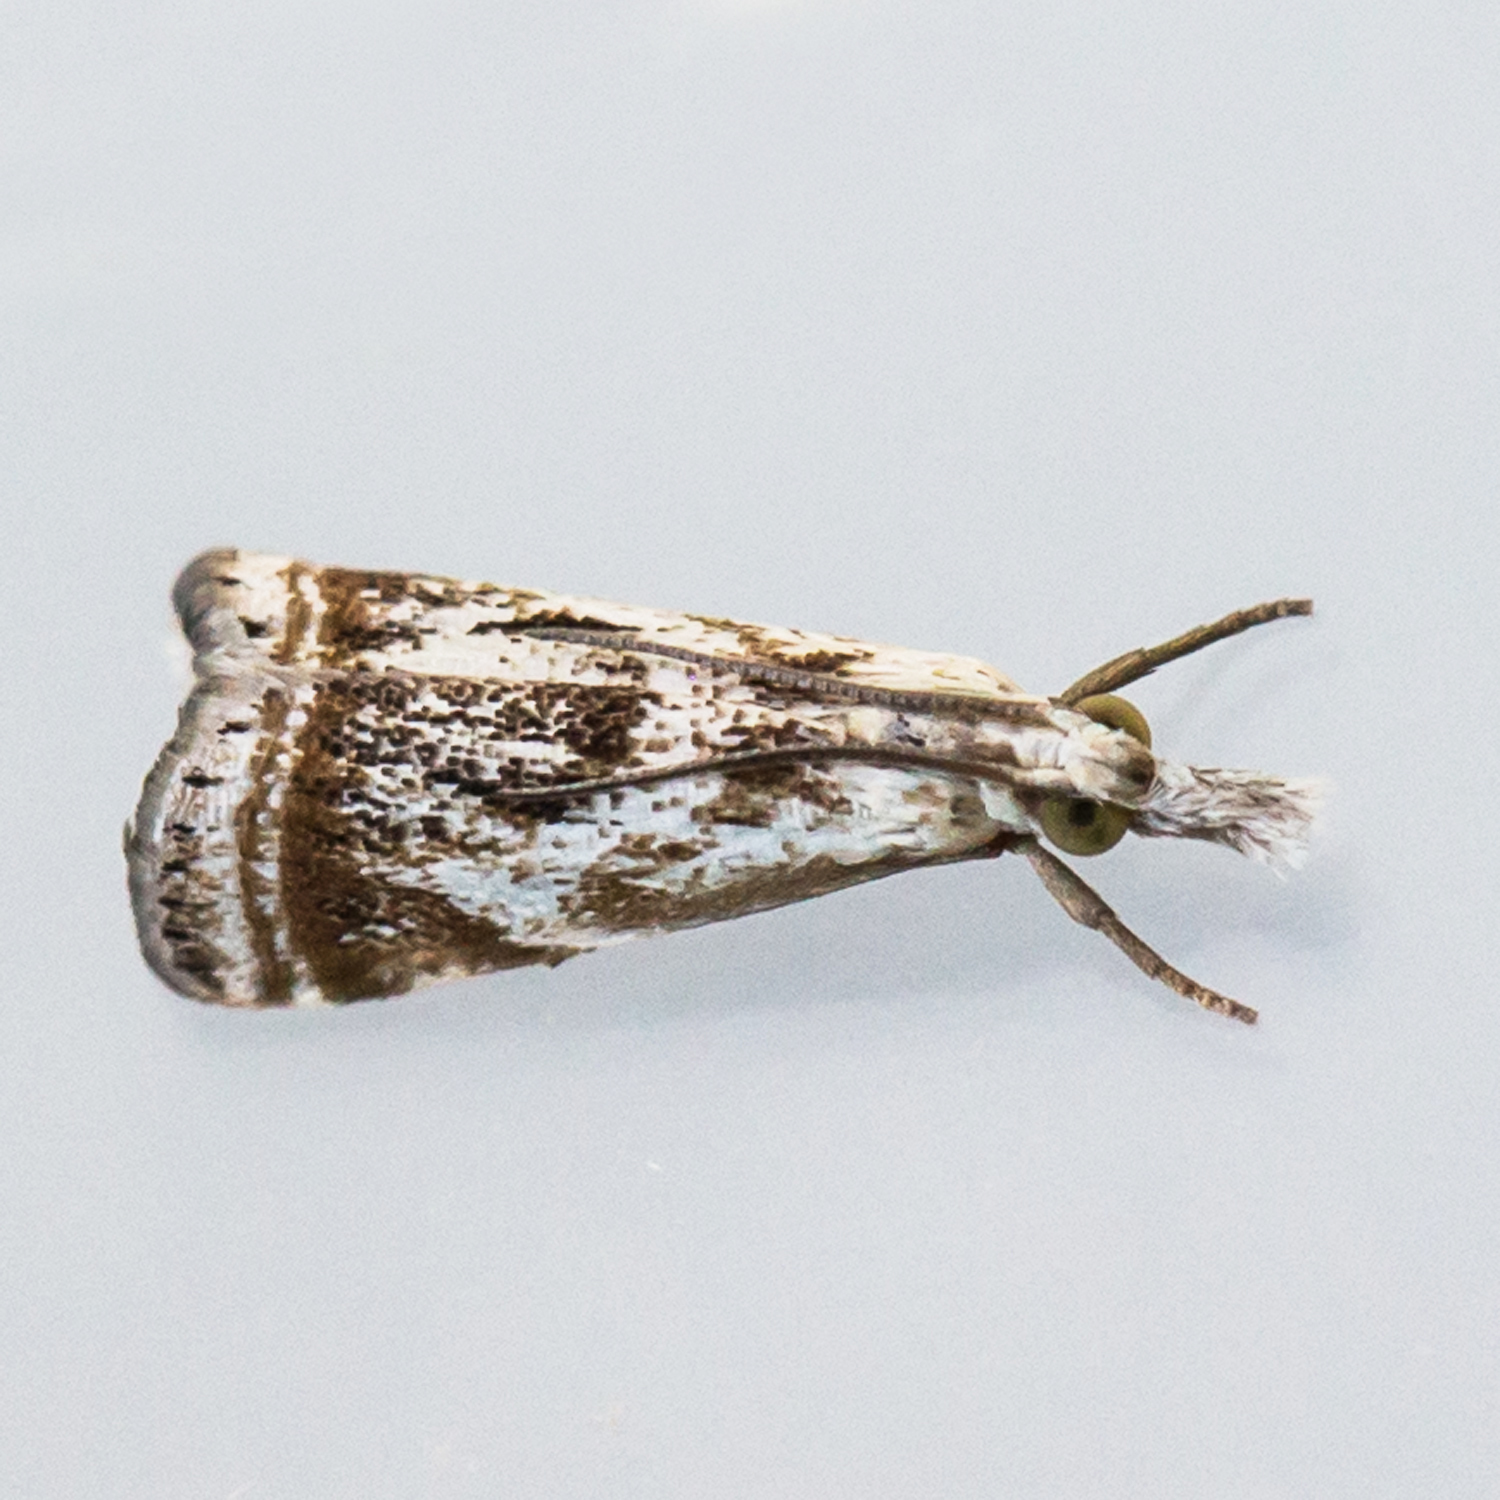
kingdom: Animalia
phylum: Arthropoda
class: Insecta
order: Lepidoptera
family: Crambidae
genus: Microcrambus
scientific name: Microcrambus elegans
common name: Elegant grass-veneer
